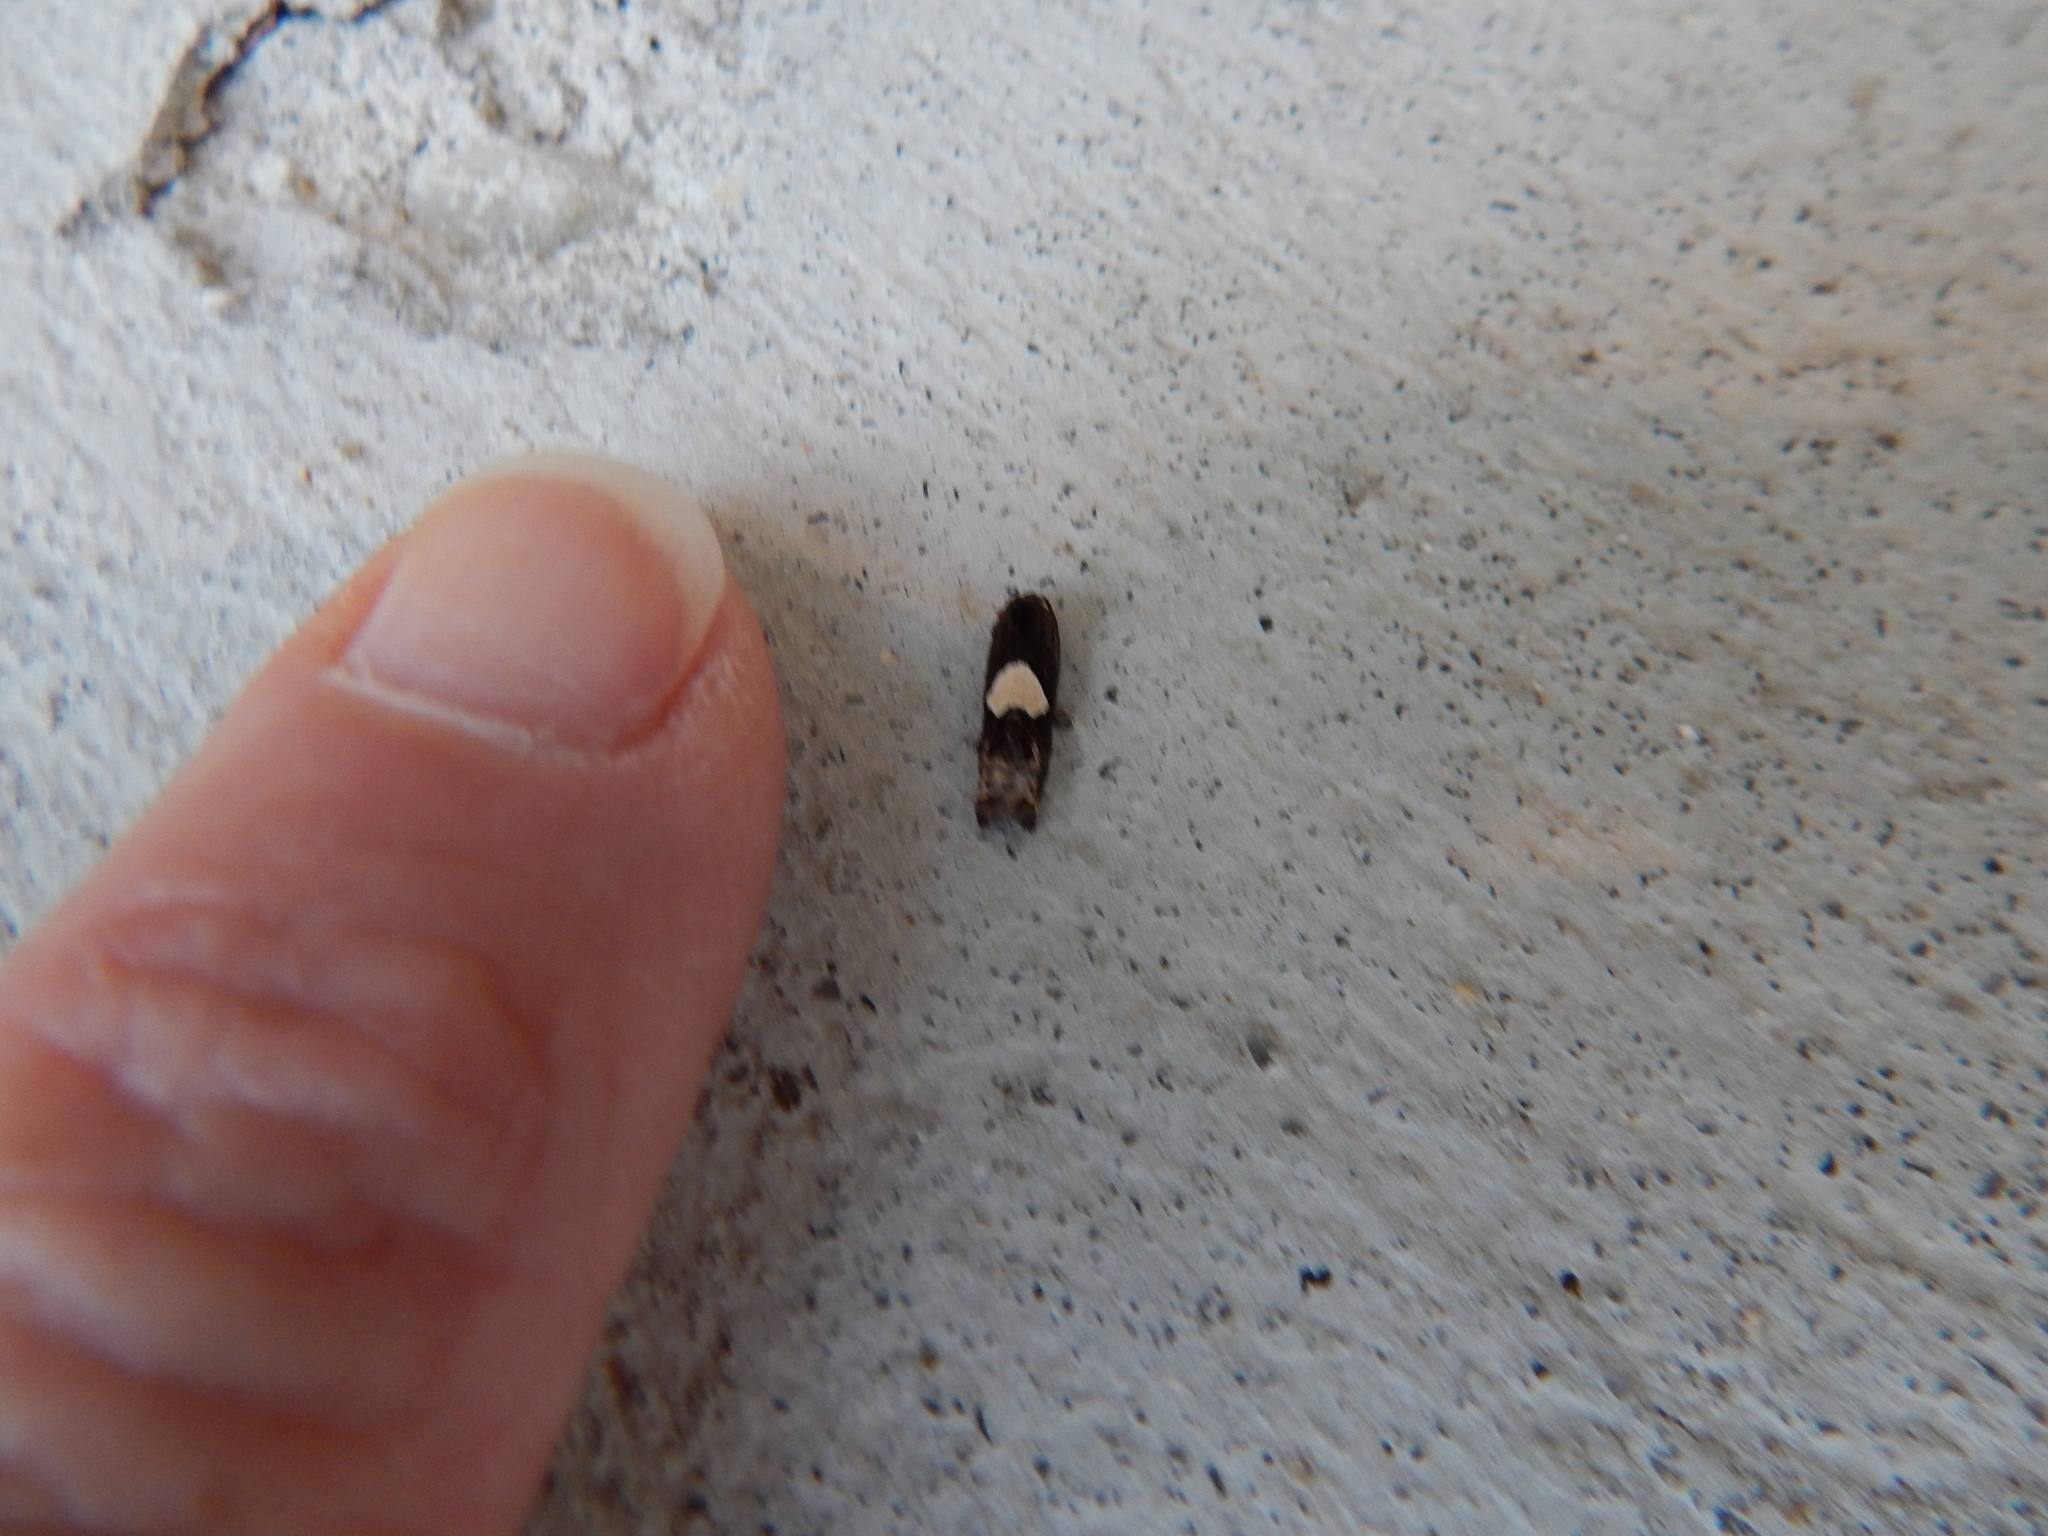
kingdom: Animalia
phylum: Arthropoda
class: Insecta
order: Lepidoptera
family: Tortricidae
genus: Epiblema
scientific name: Epiblema otiosana
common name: Bidens borer moth
